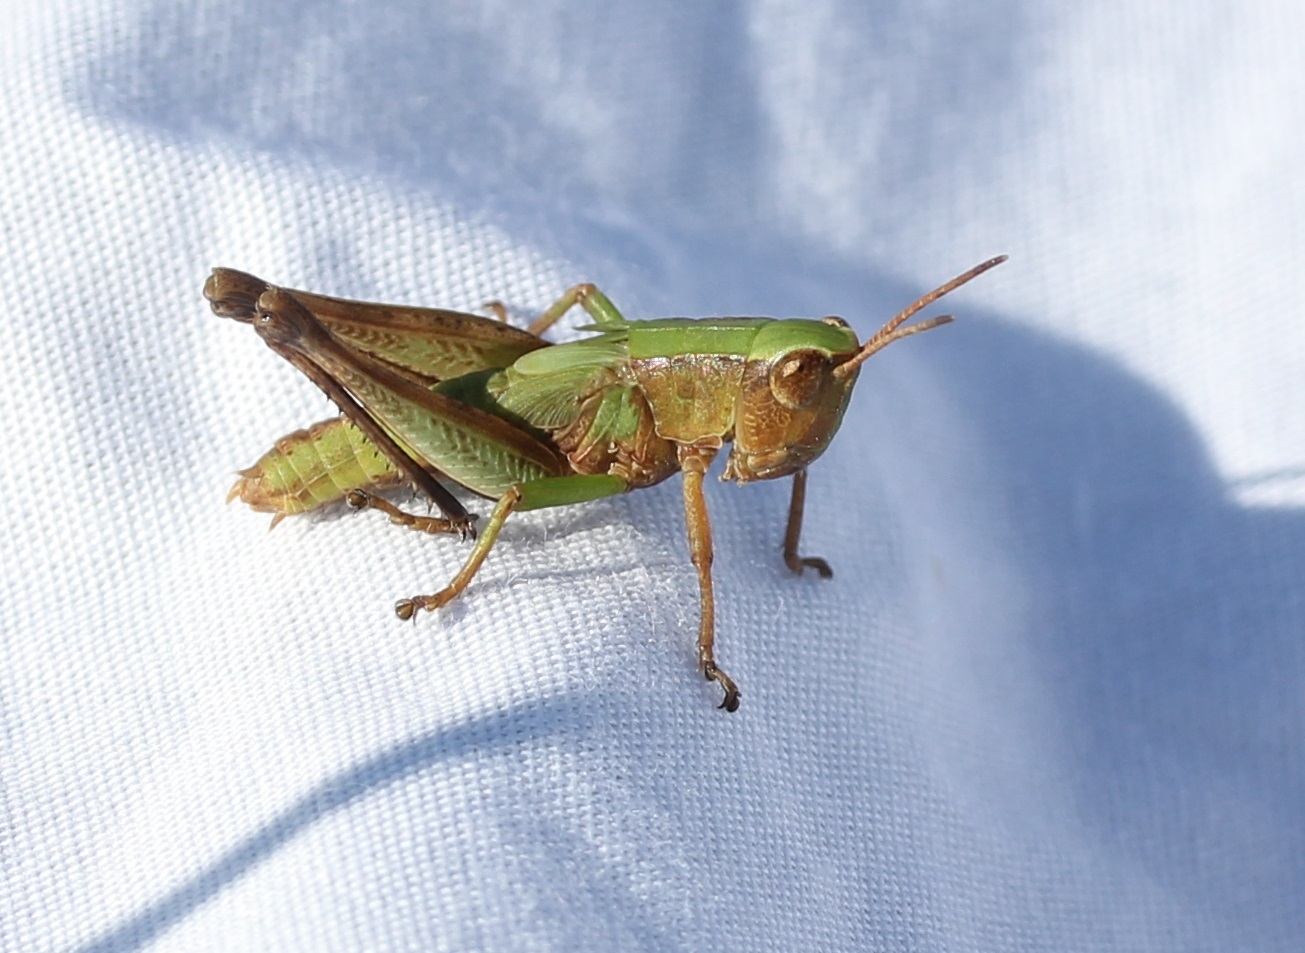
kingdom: Animalia
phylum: Arthropoda
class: Insecta
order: Orthoptera
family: Acrididae
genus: Dichromorpha
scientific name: Dichromorpha viridis
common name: Short-winged green grasshopper
